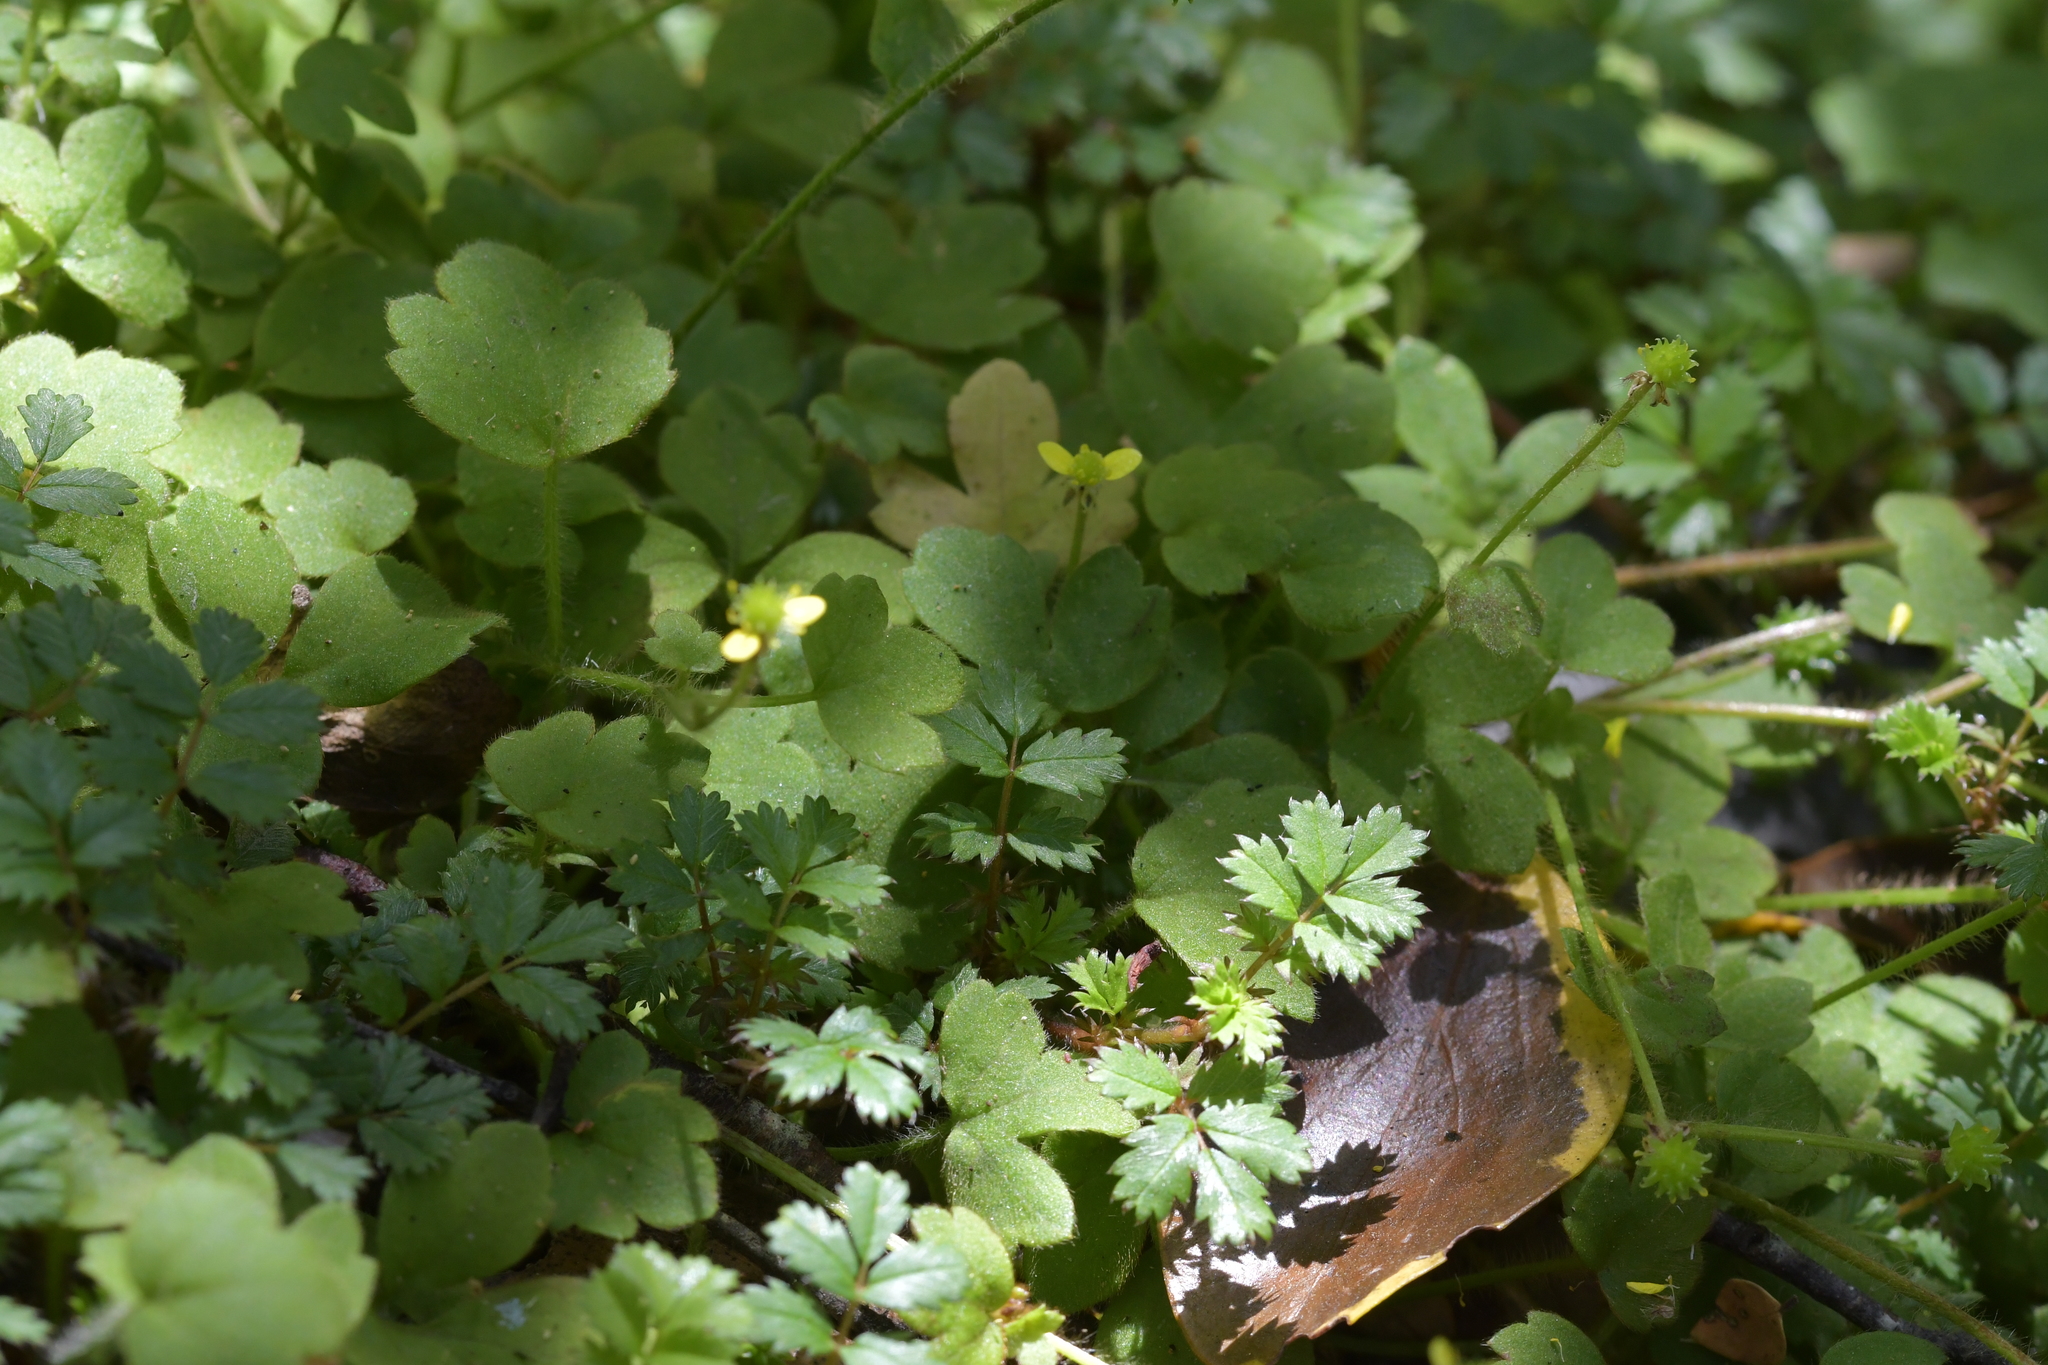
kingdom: Plantae
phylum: Tracheophyta
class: Magnoliopsida
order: Ranunculales
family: Ranunculaceae
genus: Ranunculus
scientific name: Ranunculus reflexus
